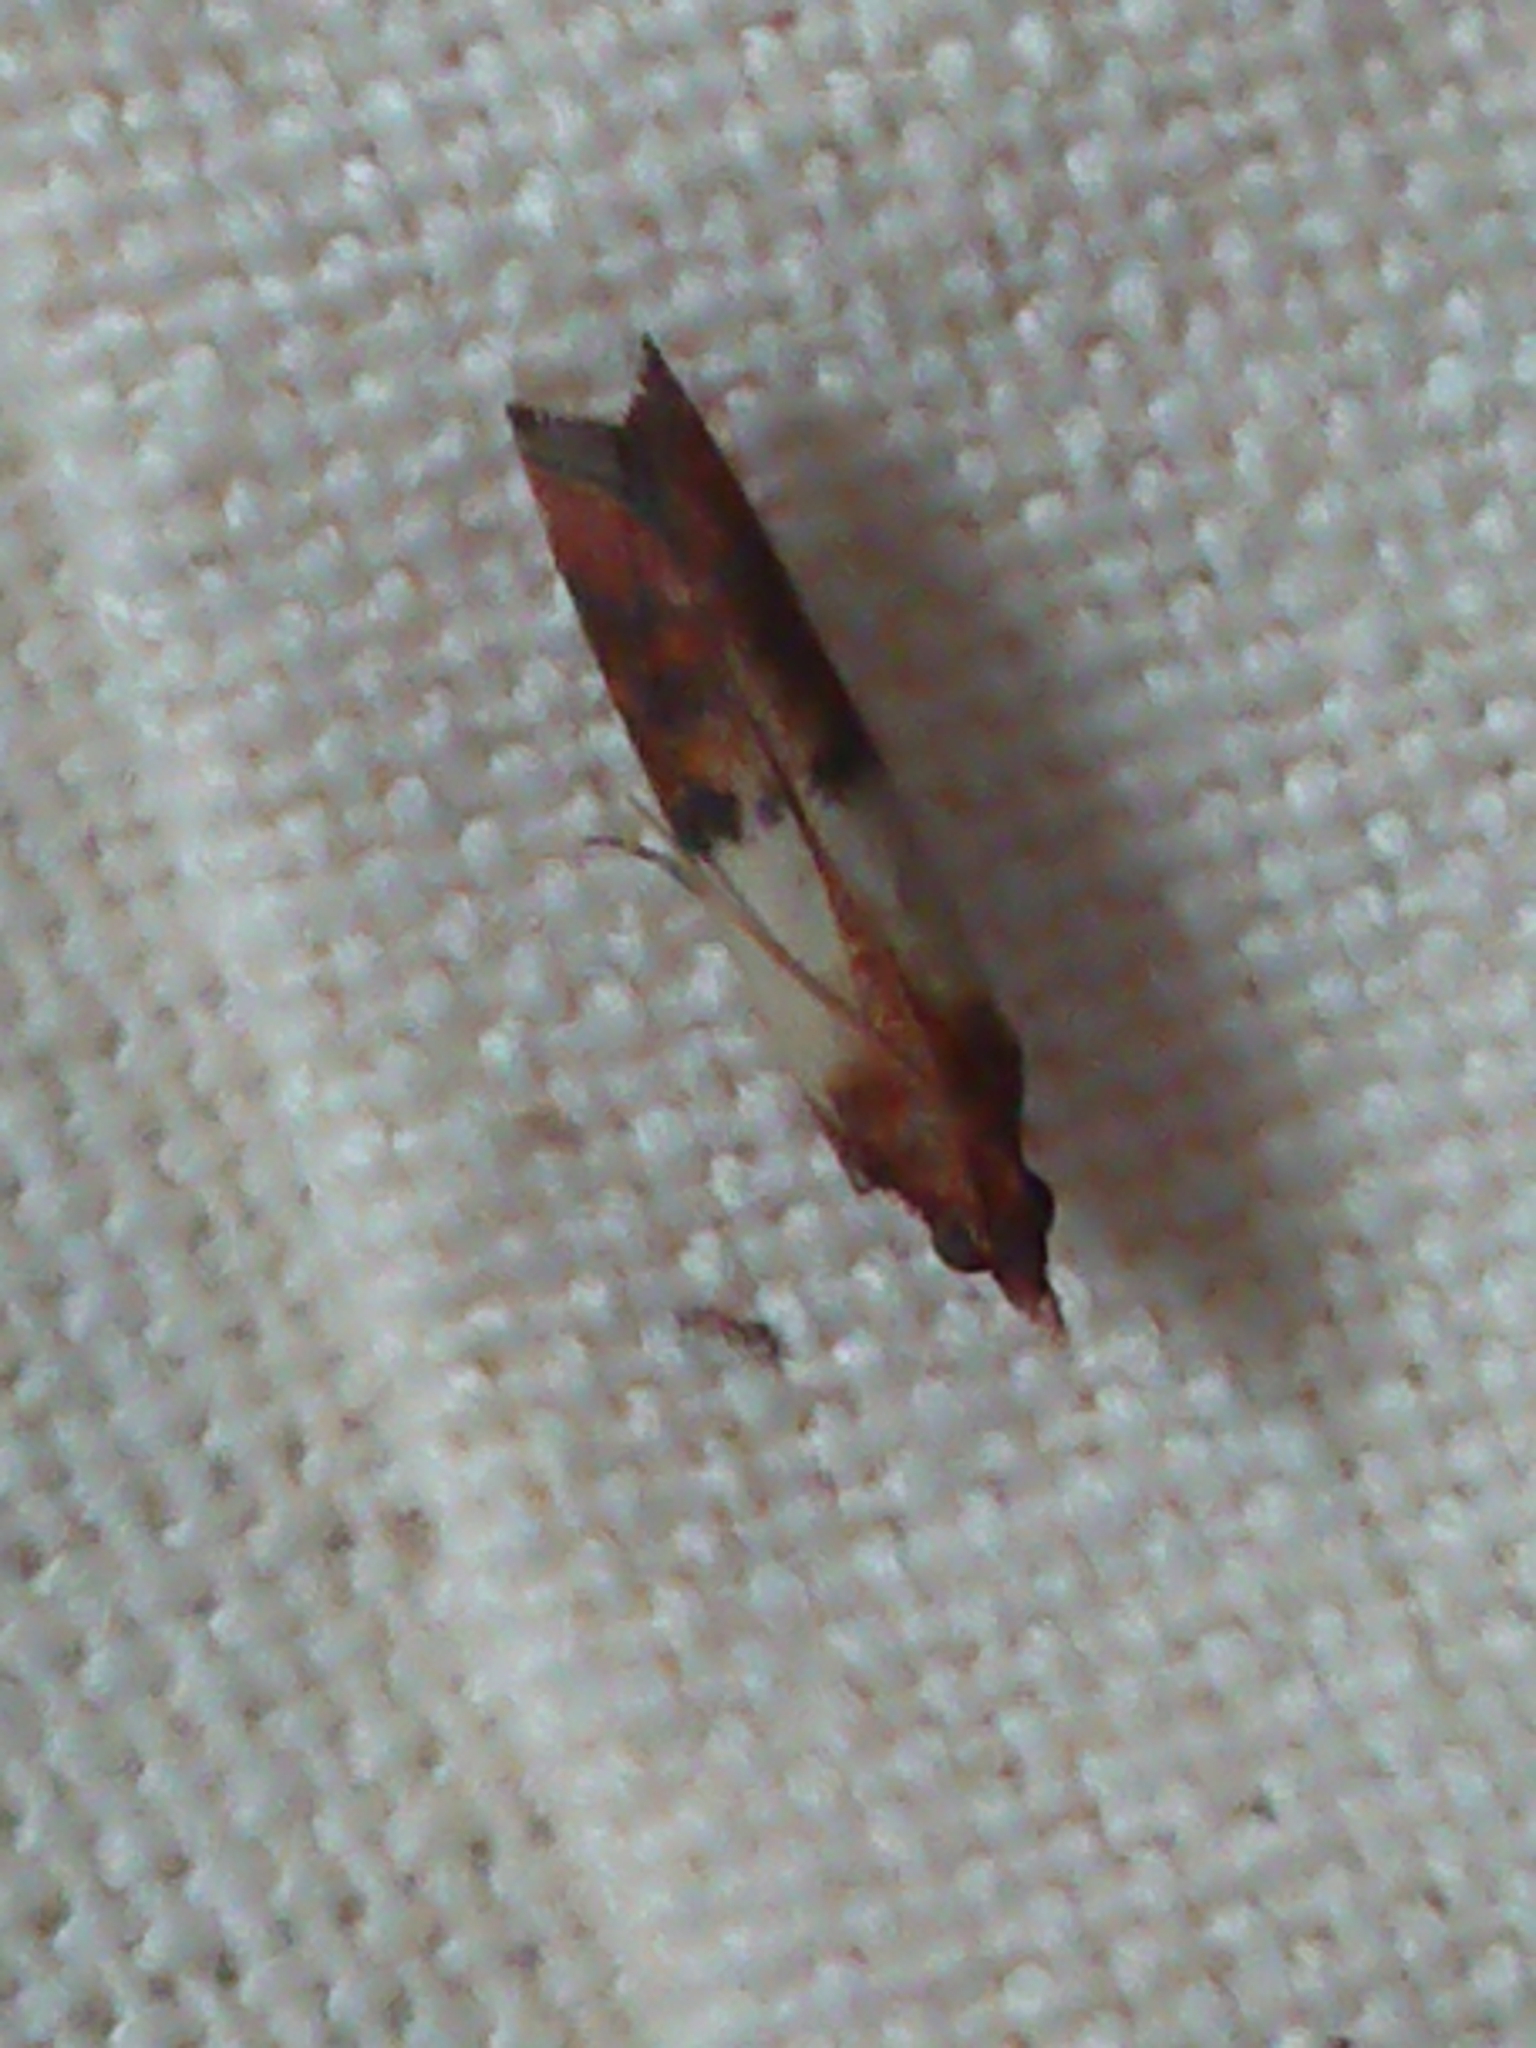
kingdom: Animalia
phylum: Arthropoda
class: Insecta
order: Lepidoptera
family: Pyralidae
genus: Plodia
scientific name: Plodia interpunctella
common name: Indian meal moth
